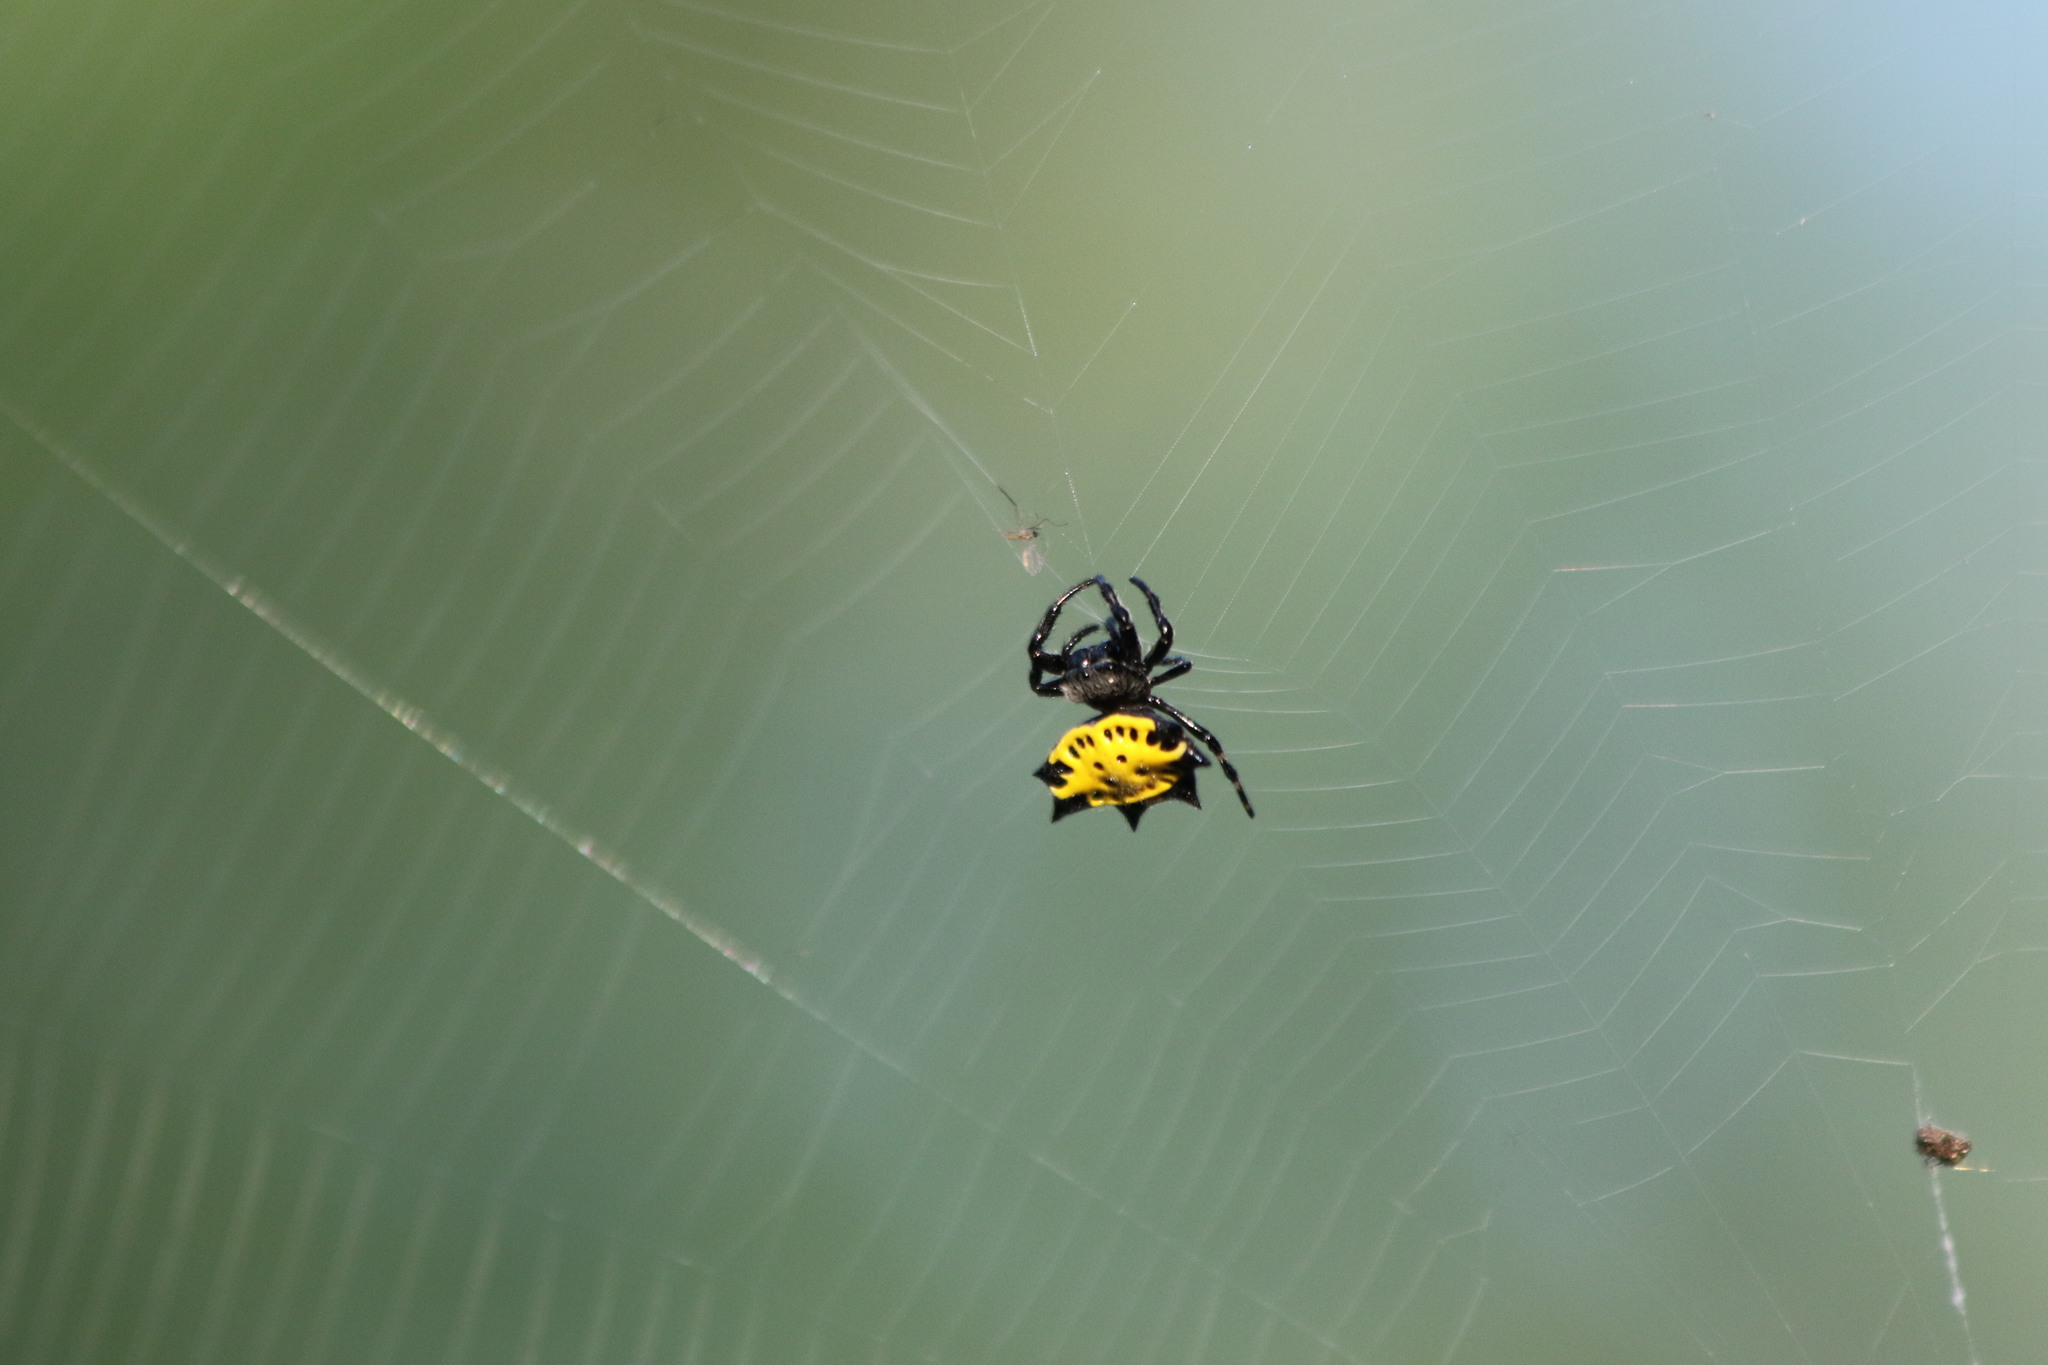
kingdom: Animalia
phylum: Arthropoda
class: Arachnida
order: Araneae
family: Araneidae
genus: Gasteracantha
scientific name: Gasteracantha cancriformis
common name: Orb weavers
